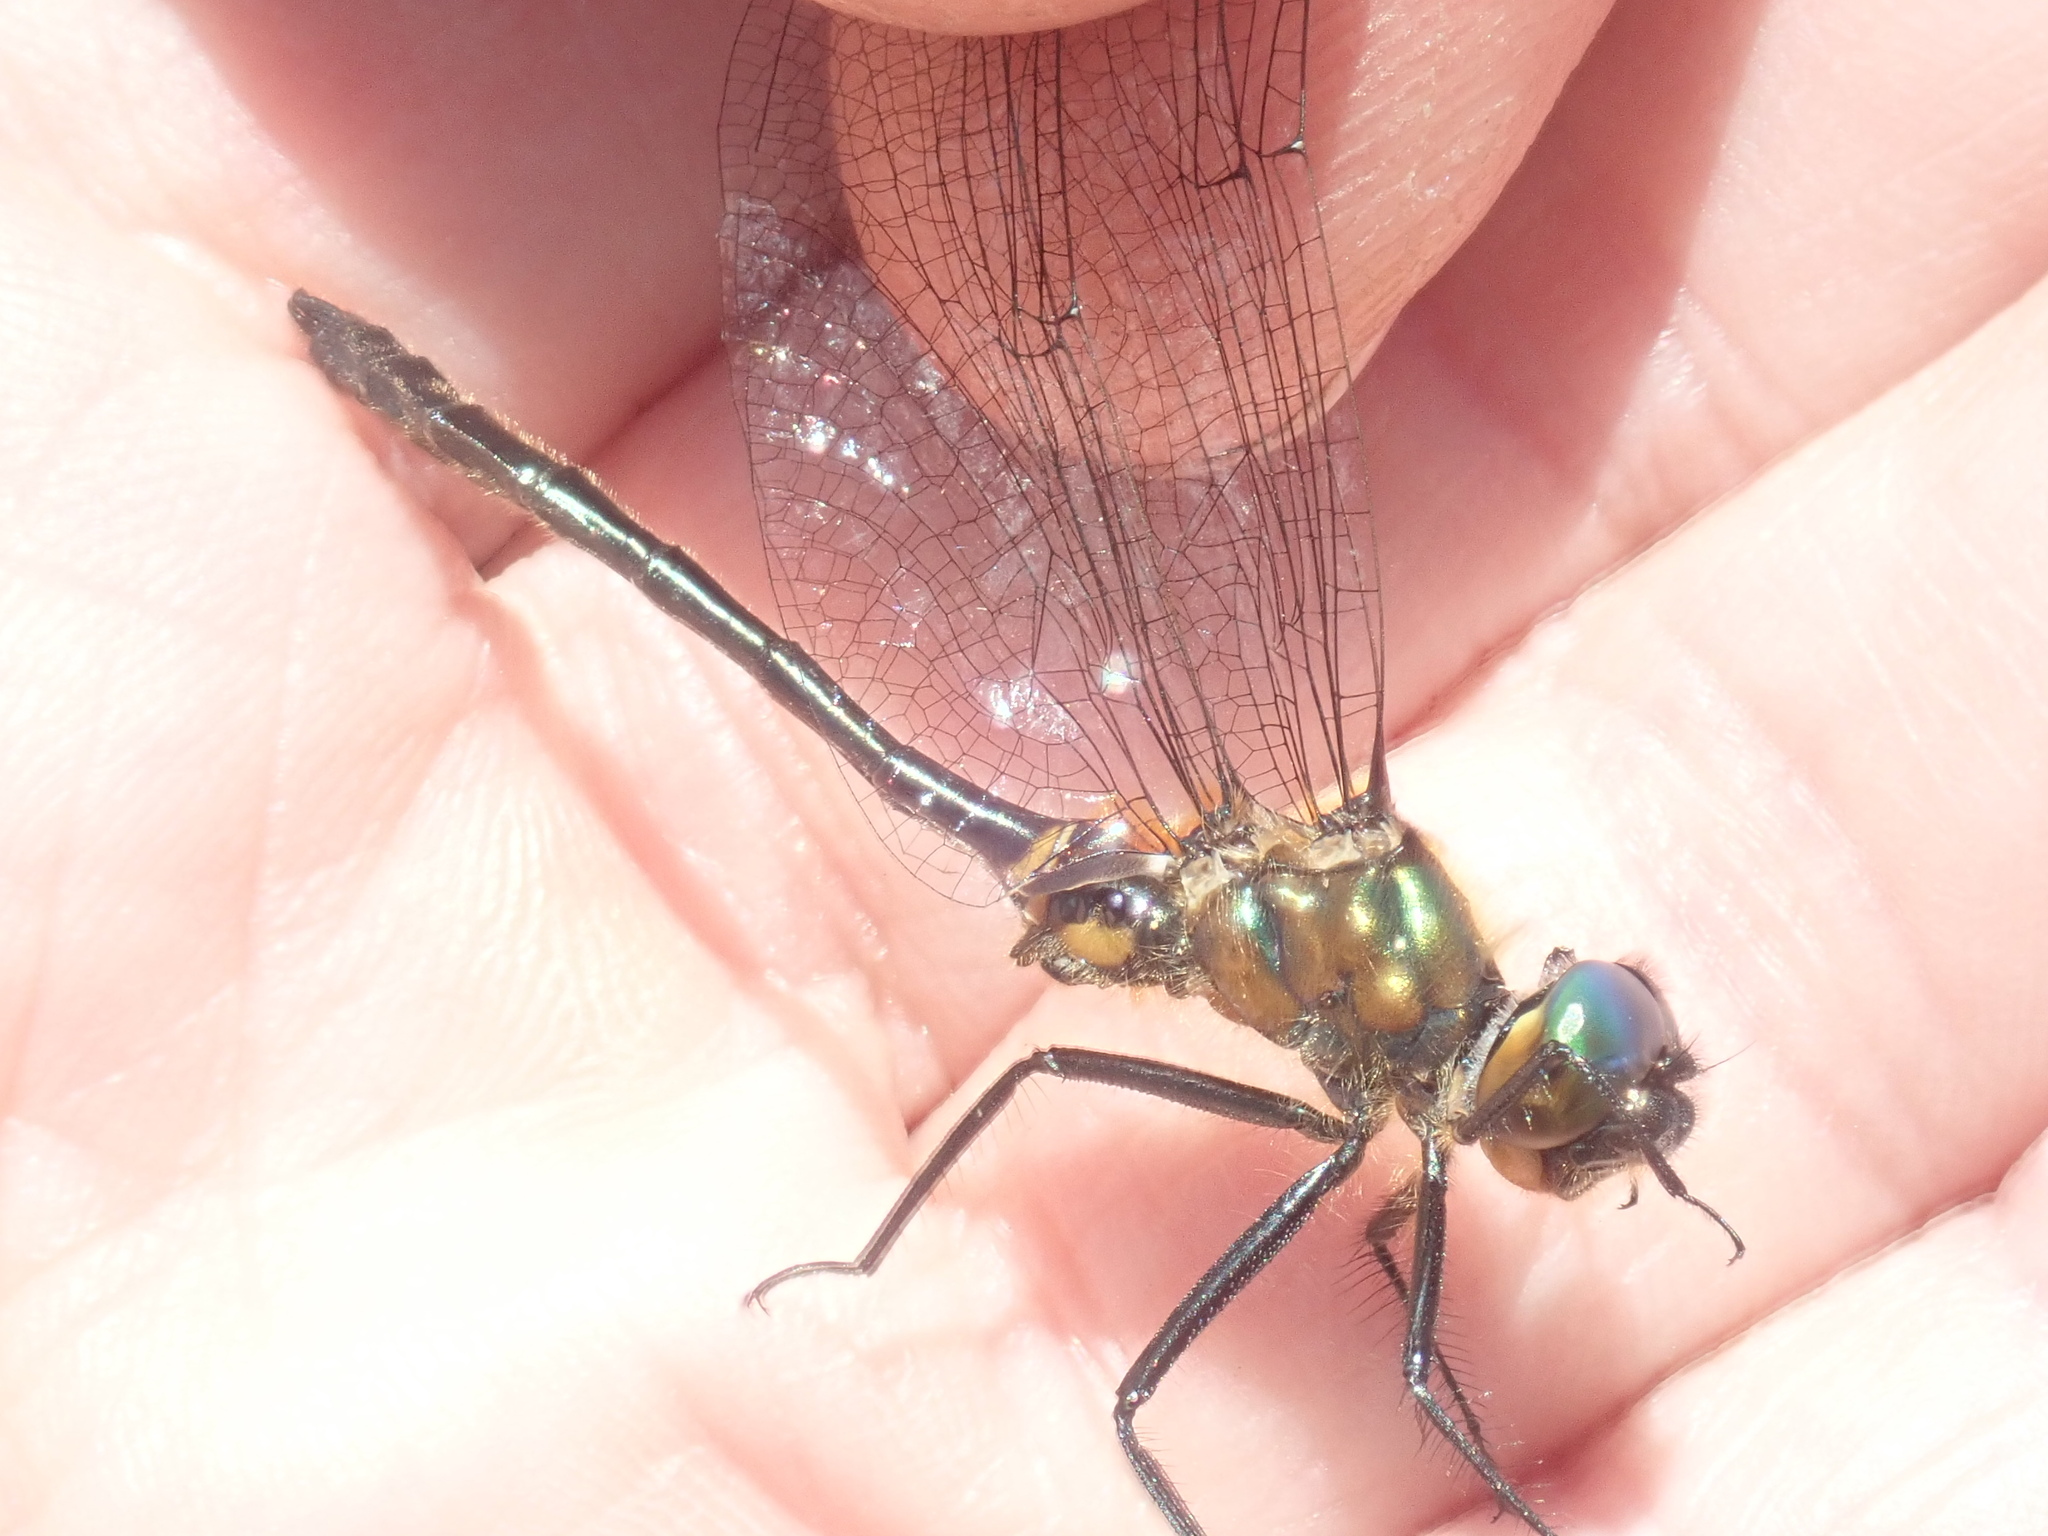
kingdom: Animalia
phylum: Arthropoda
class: Insecta
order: Odonata
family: Corduliidae
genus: Dorocordulia
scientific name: Dorocordulia libera
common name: Racket-tailed emerald
